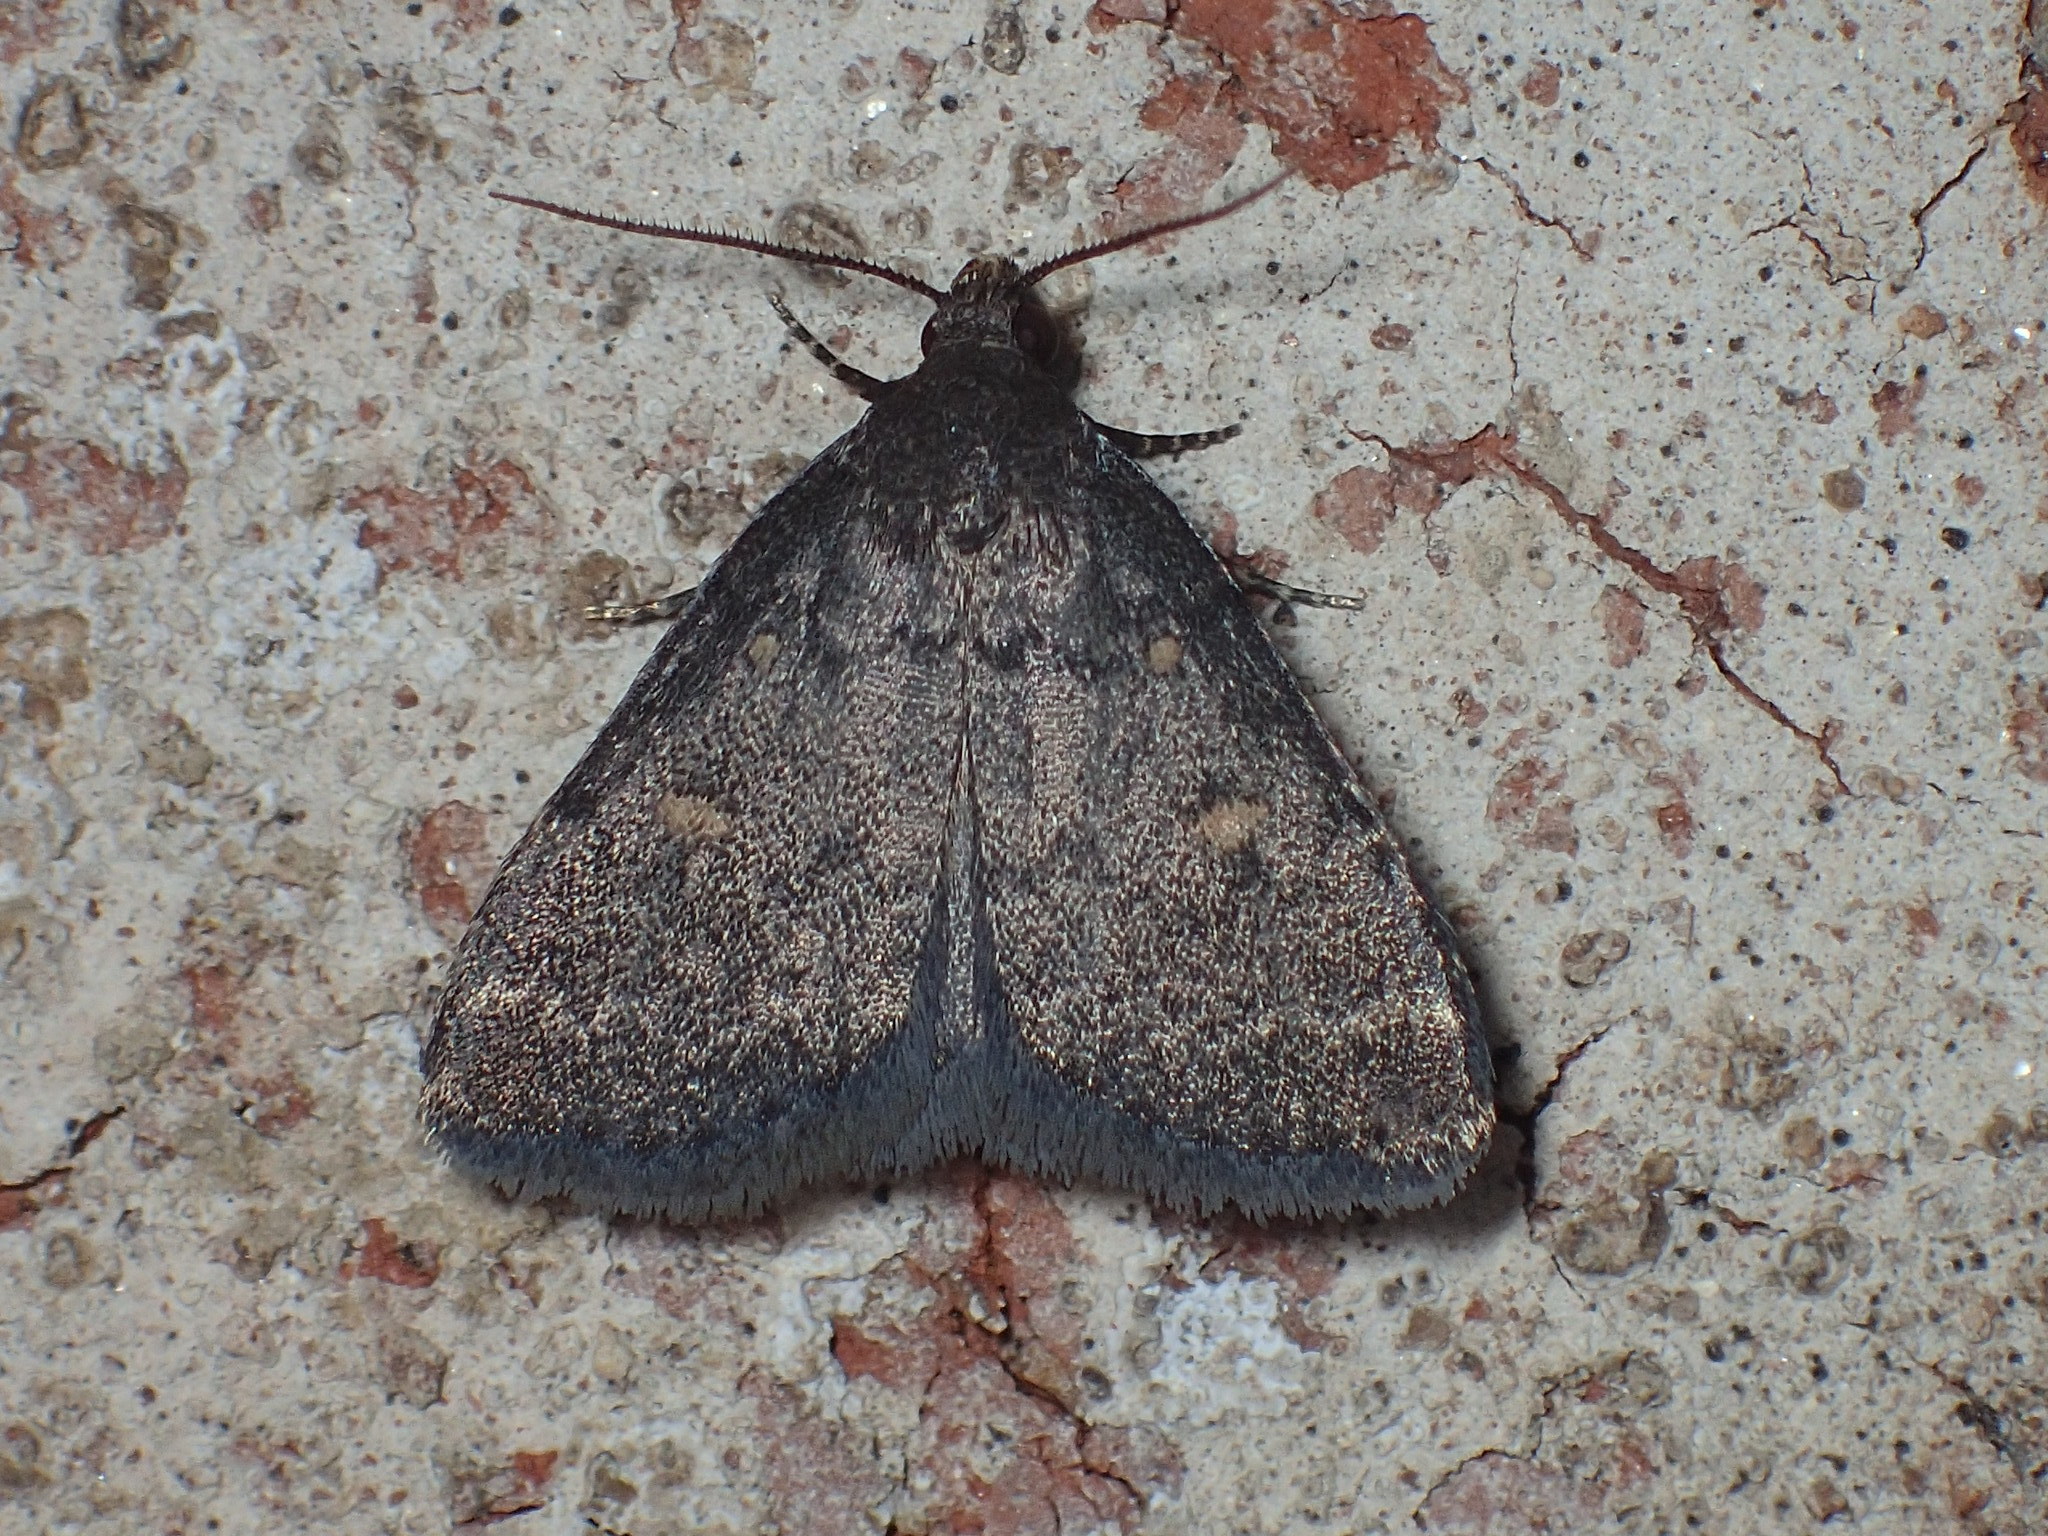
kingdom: Animalia
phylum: Arthropoda
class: Insecta
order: Lepidoptera
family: Erebidae
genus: Idia
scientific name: Idia diminuendis
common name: Orange-spotted idia moth
